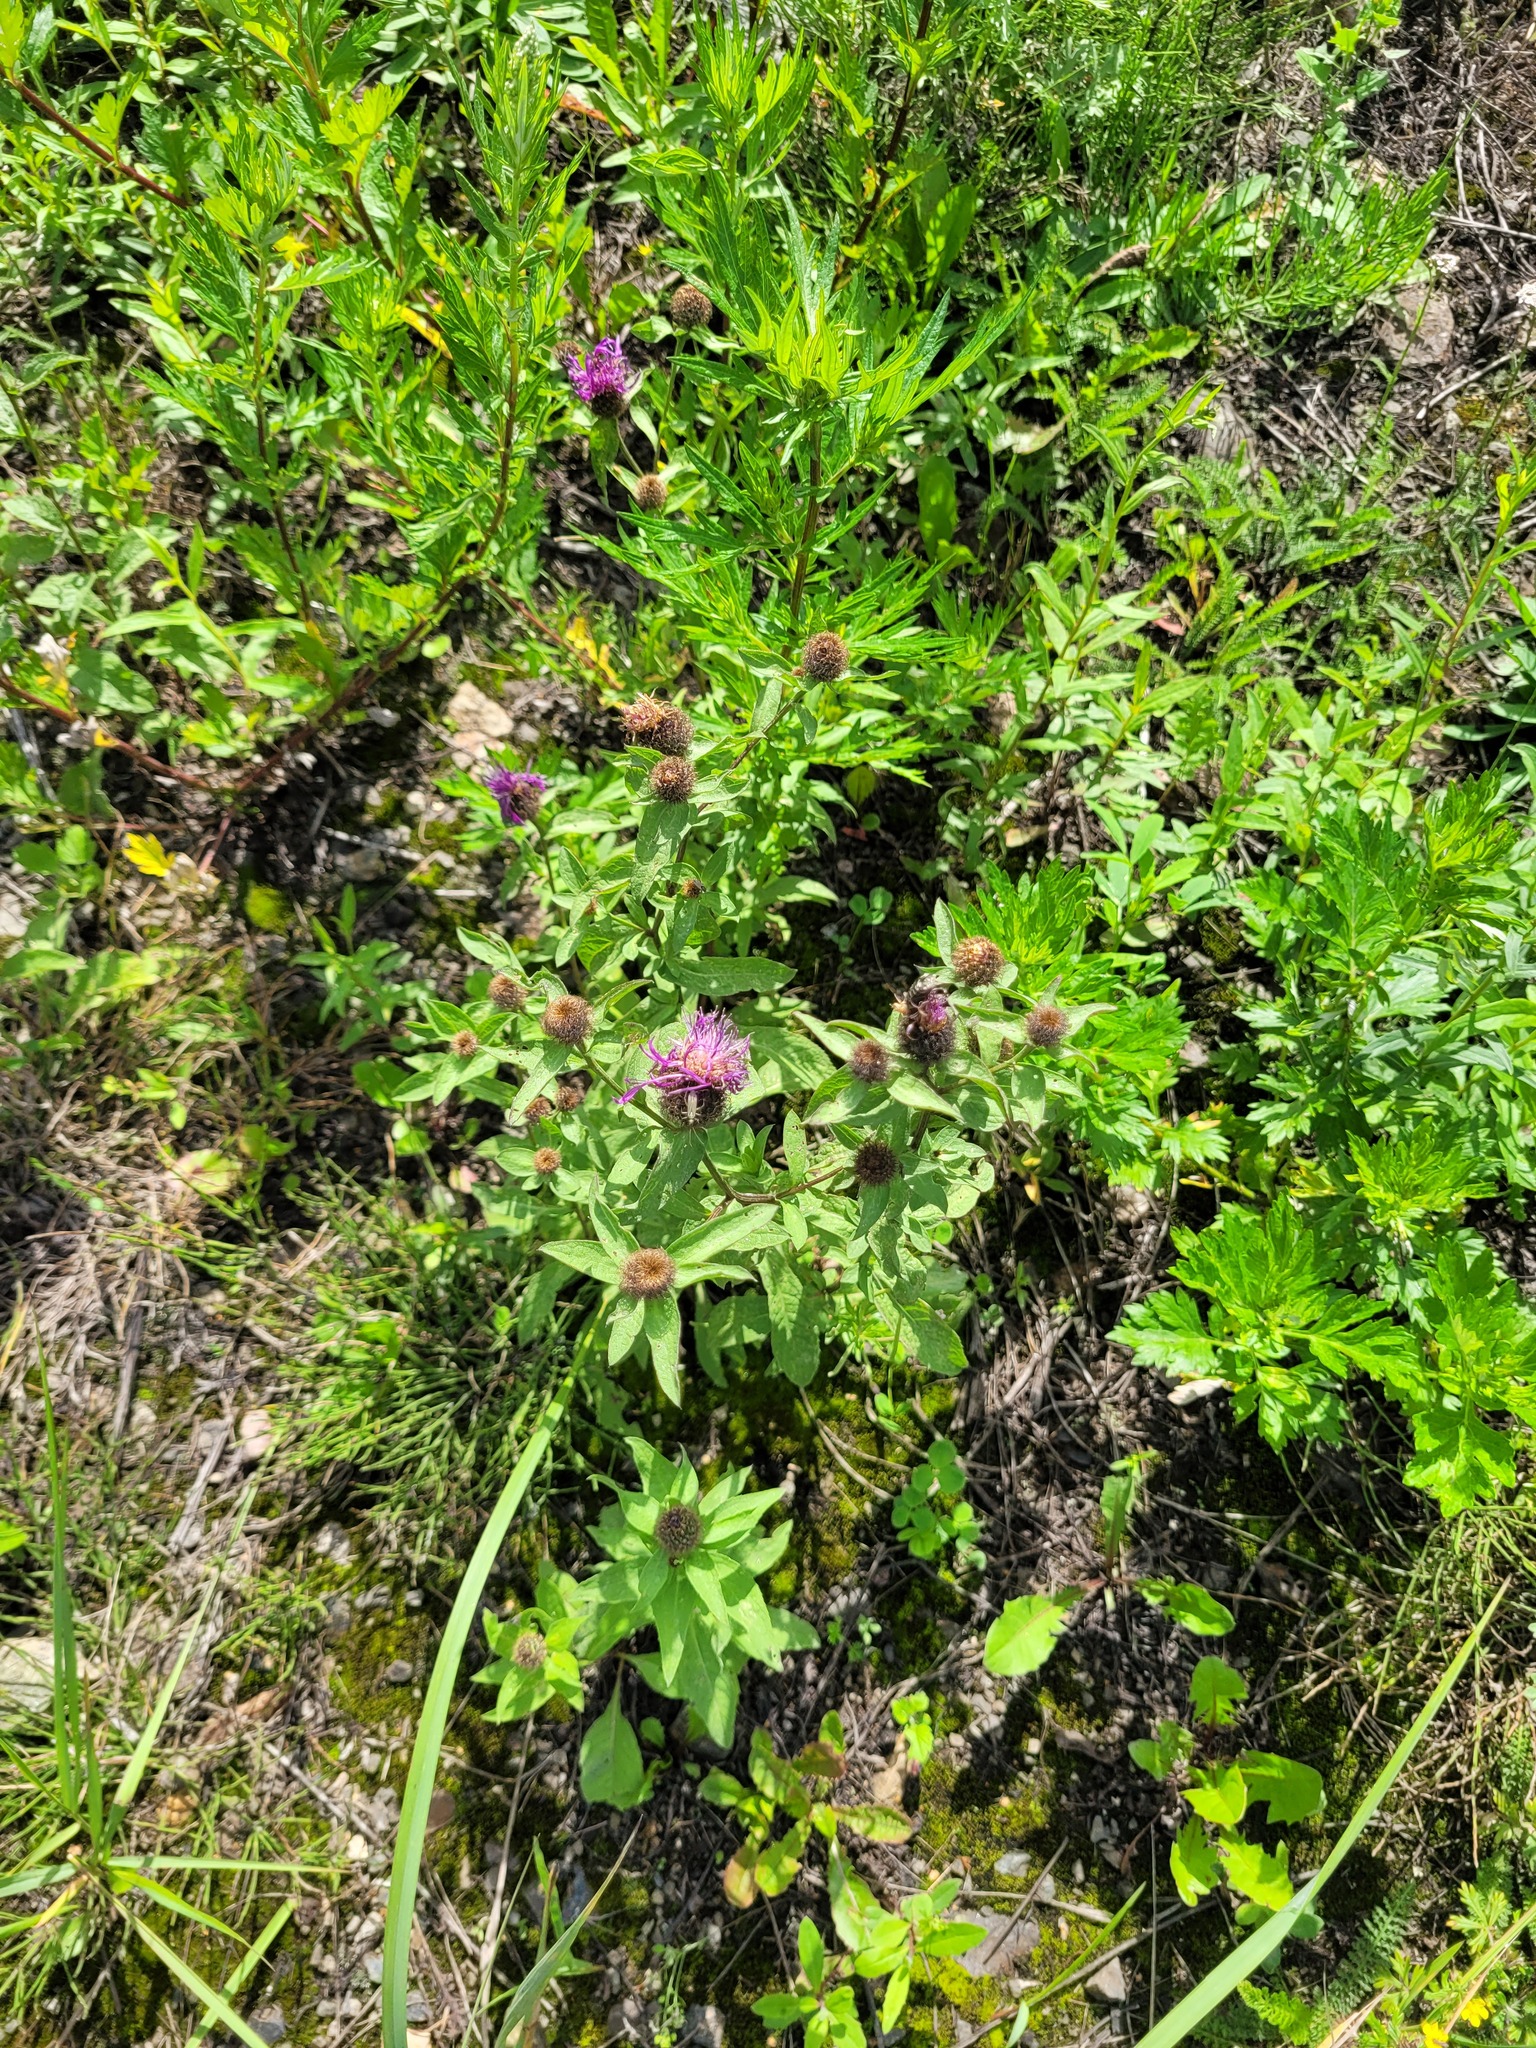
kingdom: Plantae
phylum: Tracheophyta
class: Magnoliopsida
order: Asterales
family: Asteraceae
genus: Centaurea
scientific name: Centaurea pseudophrygia
